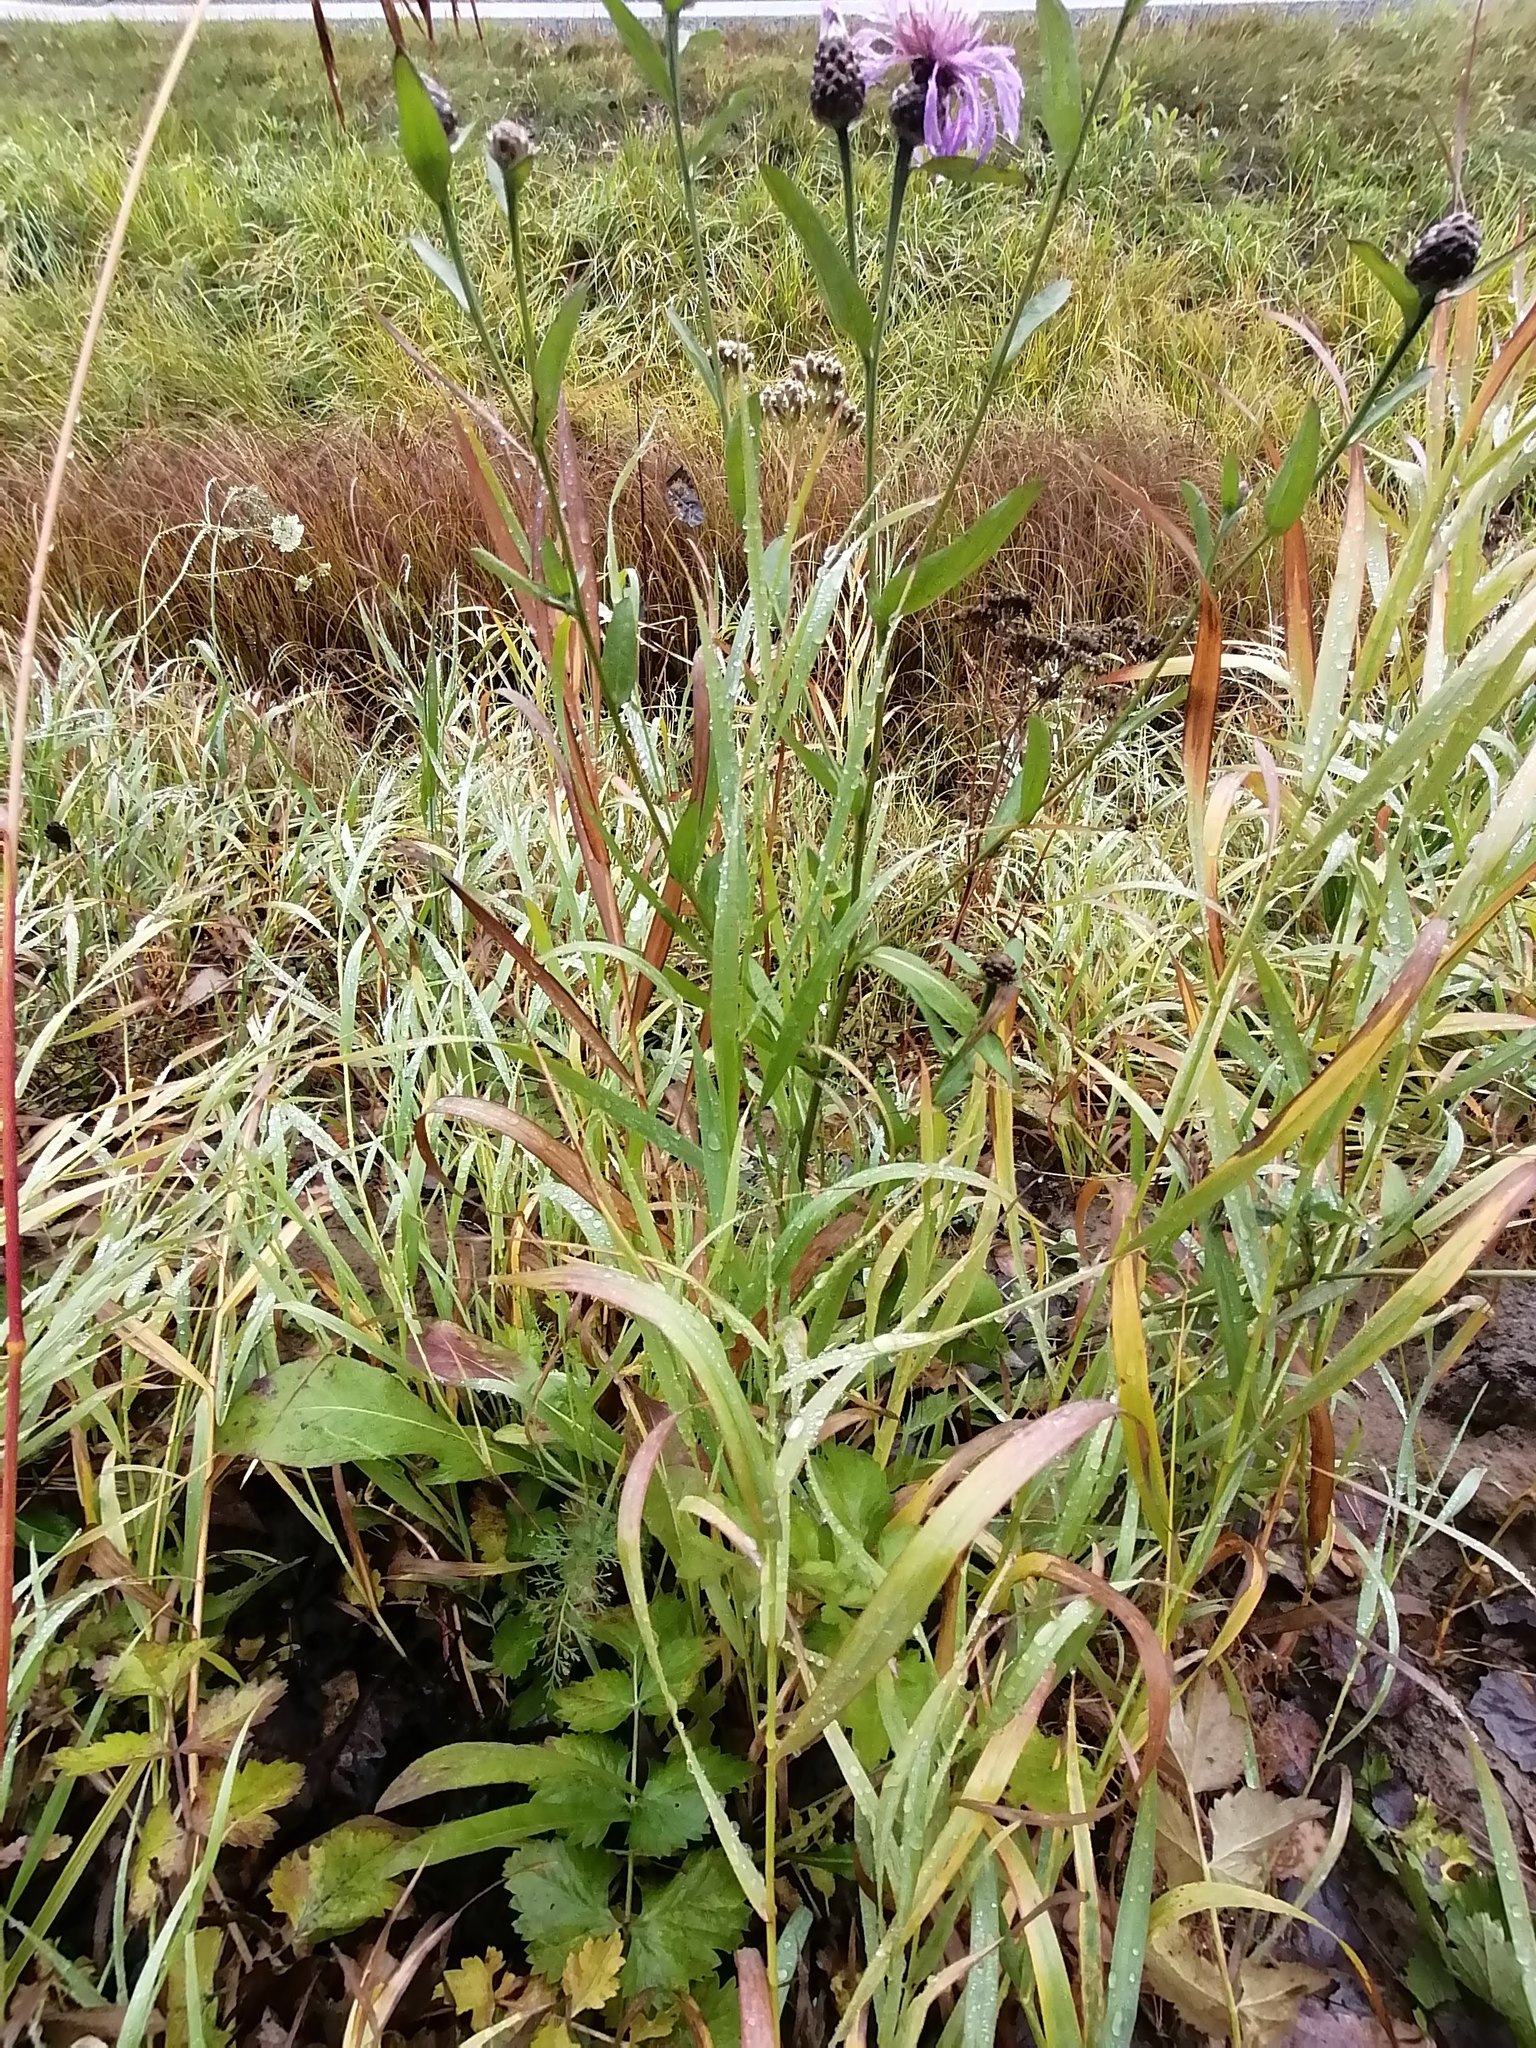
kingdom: Plantae
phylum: Tracheophyta
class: Magnoliopsida
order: Asterales
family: Asteraceae
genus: Centaurea
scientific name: Centaurea jacea
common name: Brown knapweed
